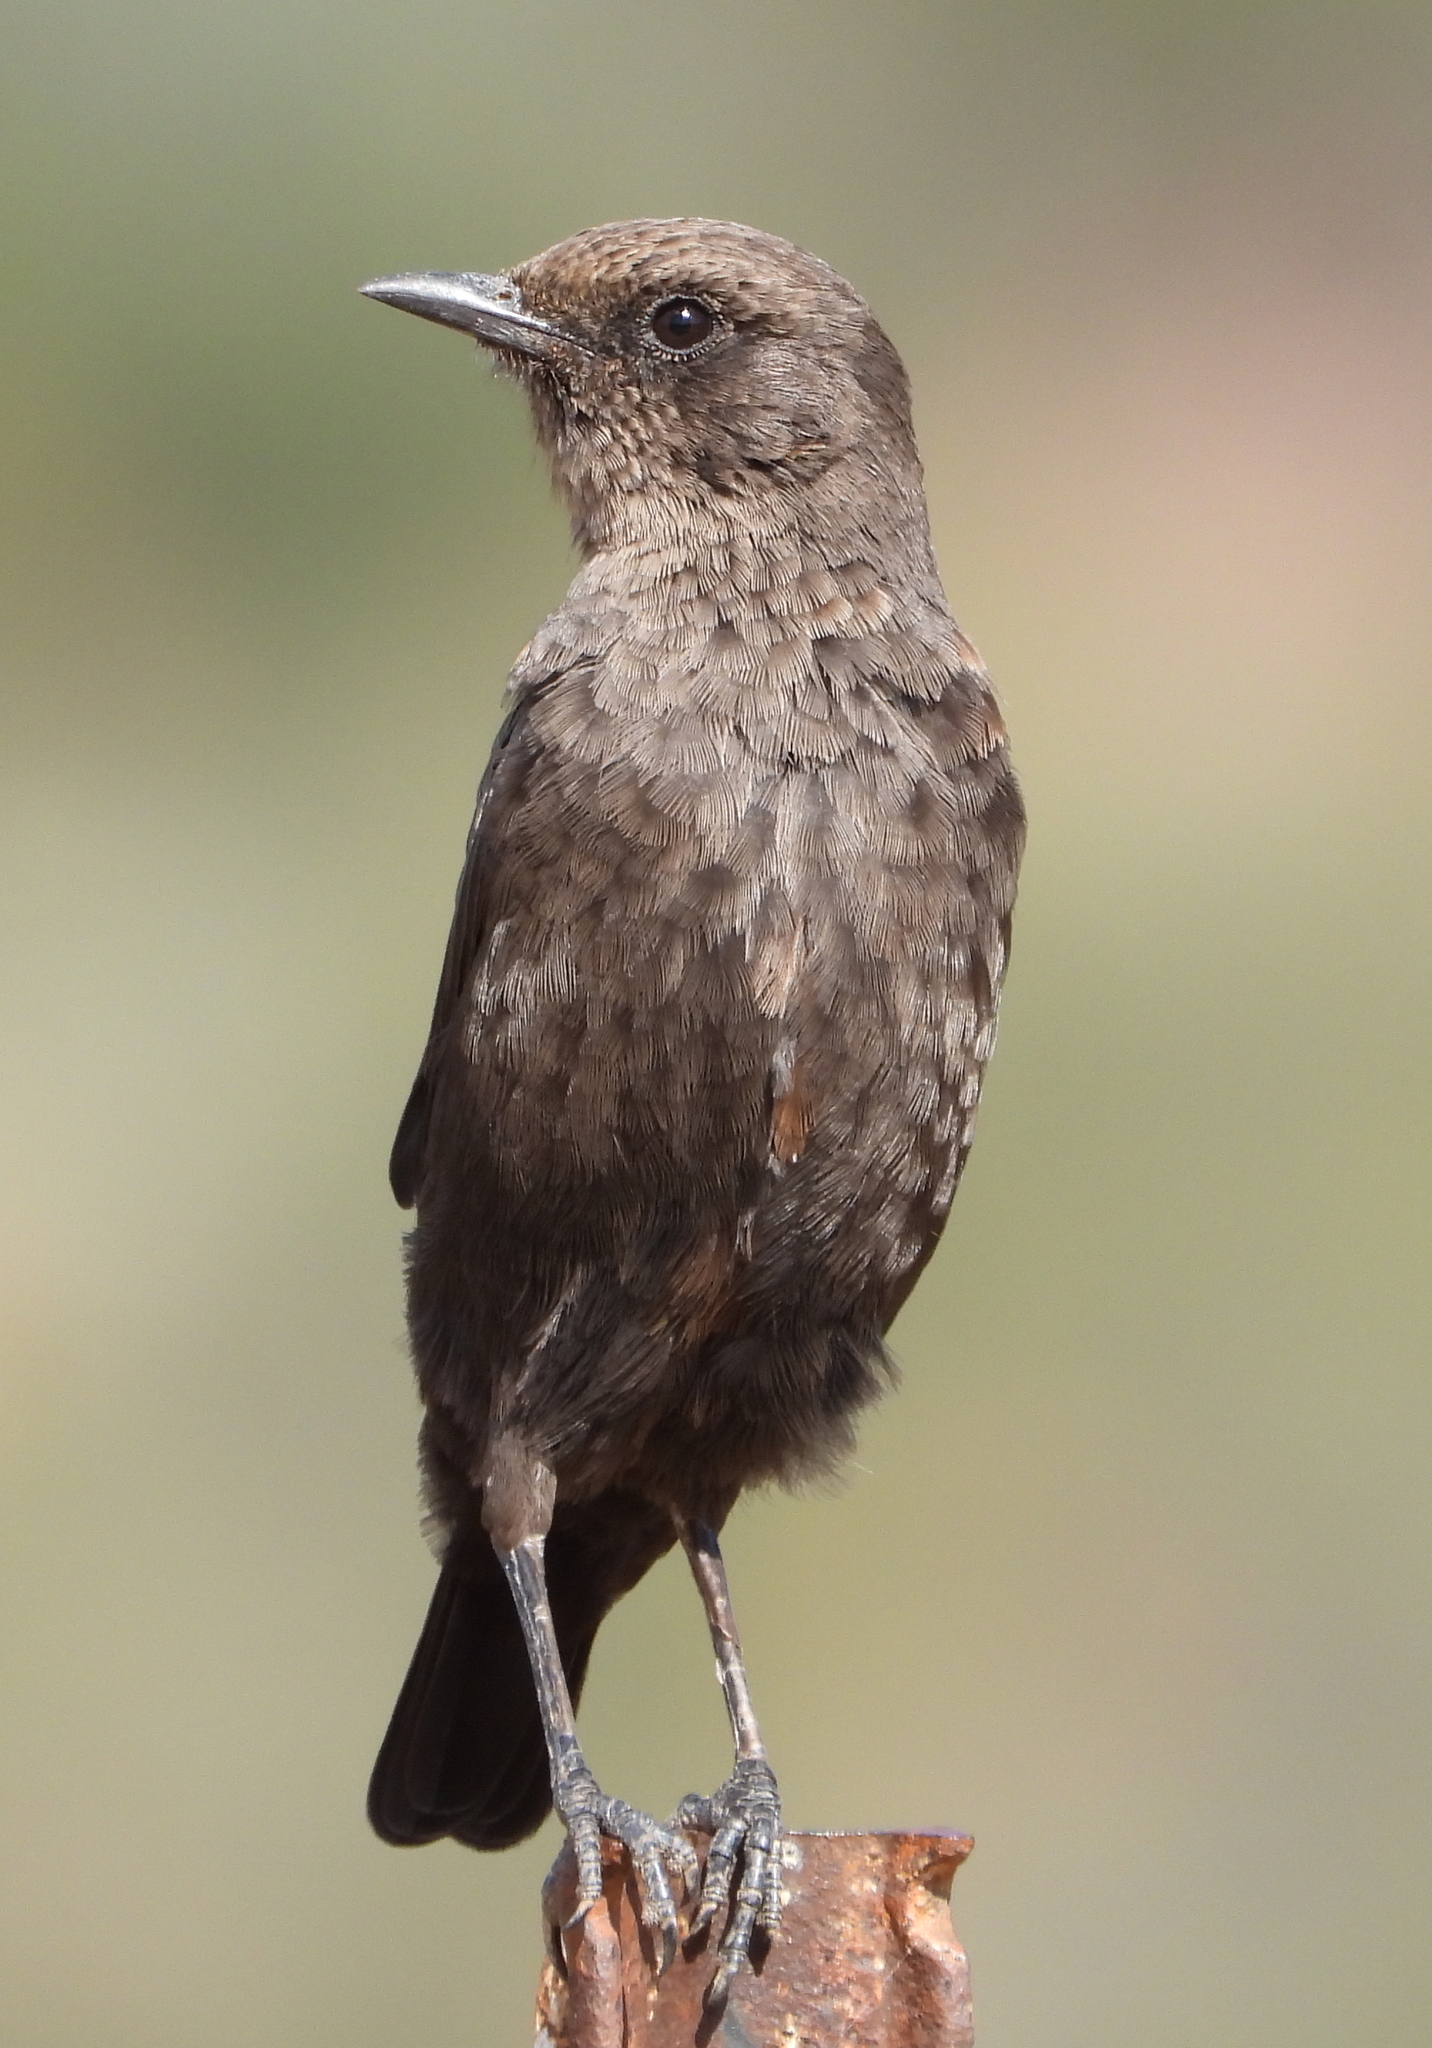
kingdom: Animalia
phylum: Chordata
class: Aves
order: Passeriformes
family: Muscicapidae
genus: Myrmecocichla
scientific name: Myrmecocichla formicivora
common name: Ant-eating chat
